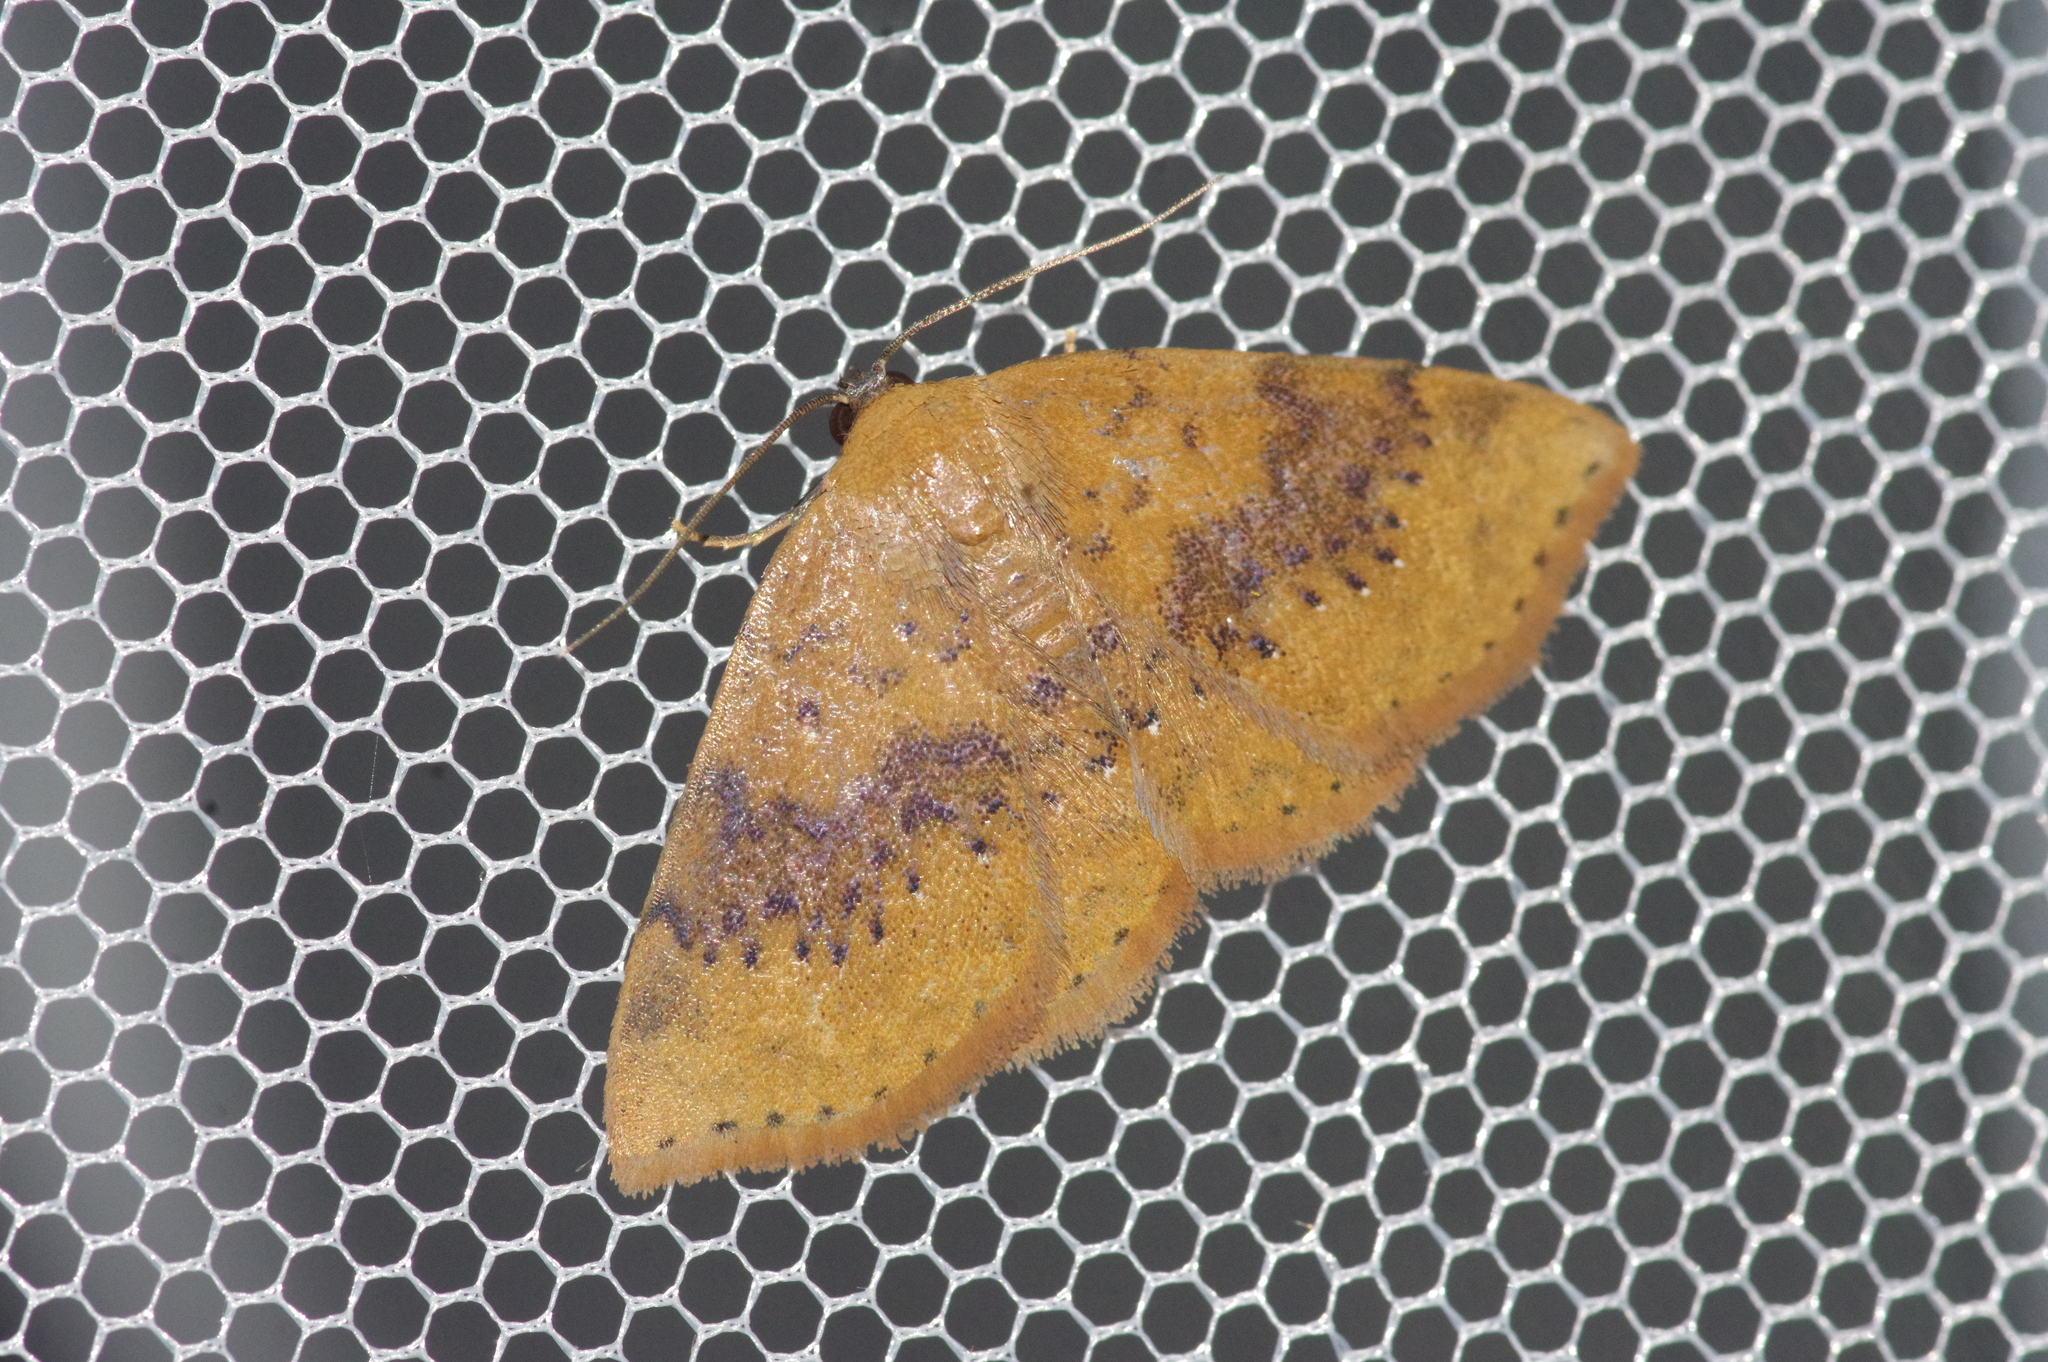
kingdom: Animalia
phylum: Arthropoda
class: Insecta
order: Lepidoptera
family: Noctuidae
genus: Oruza
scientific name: Oruza brunnea
